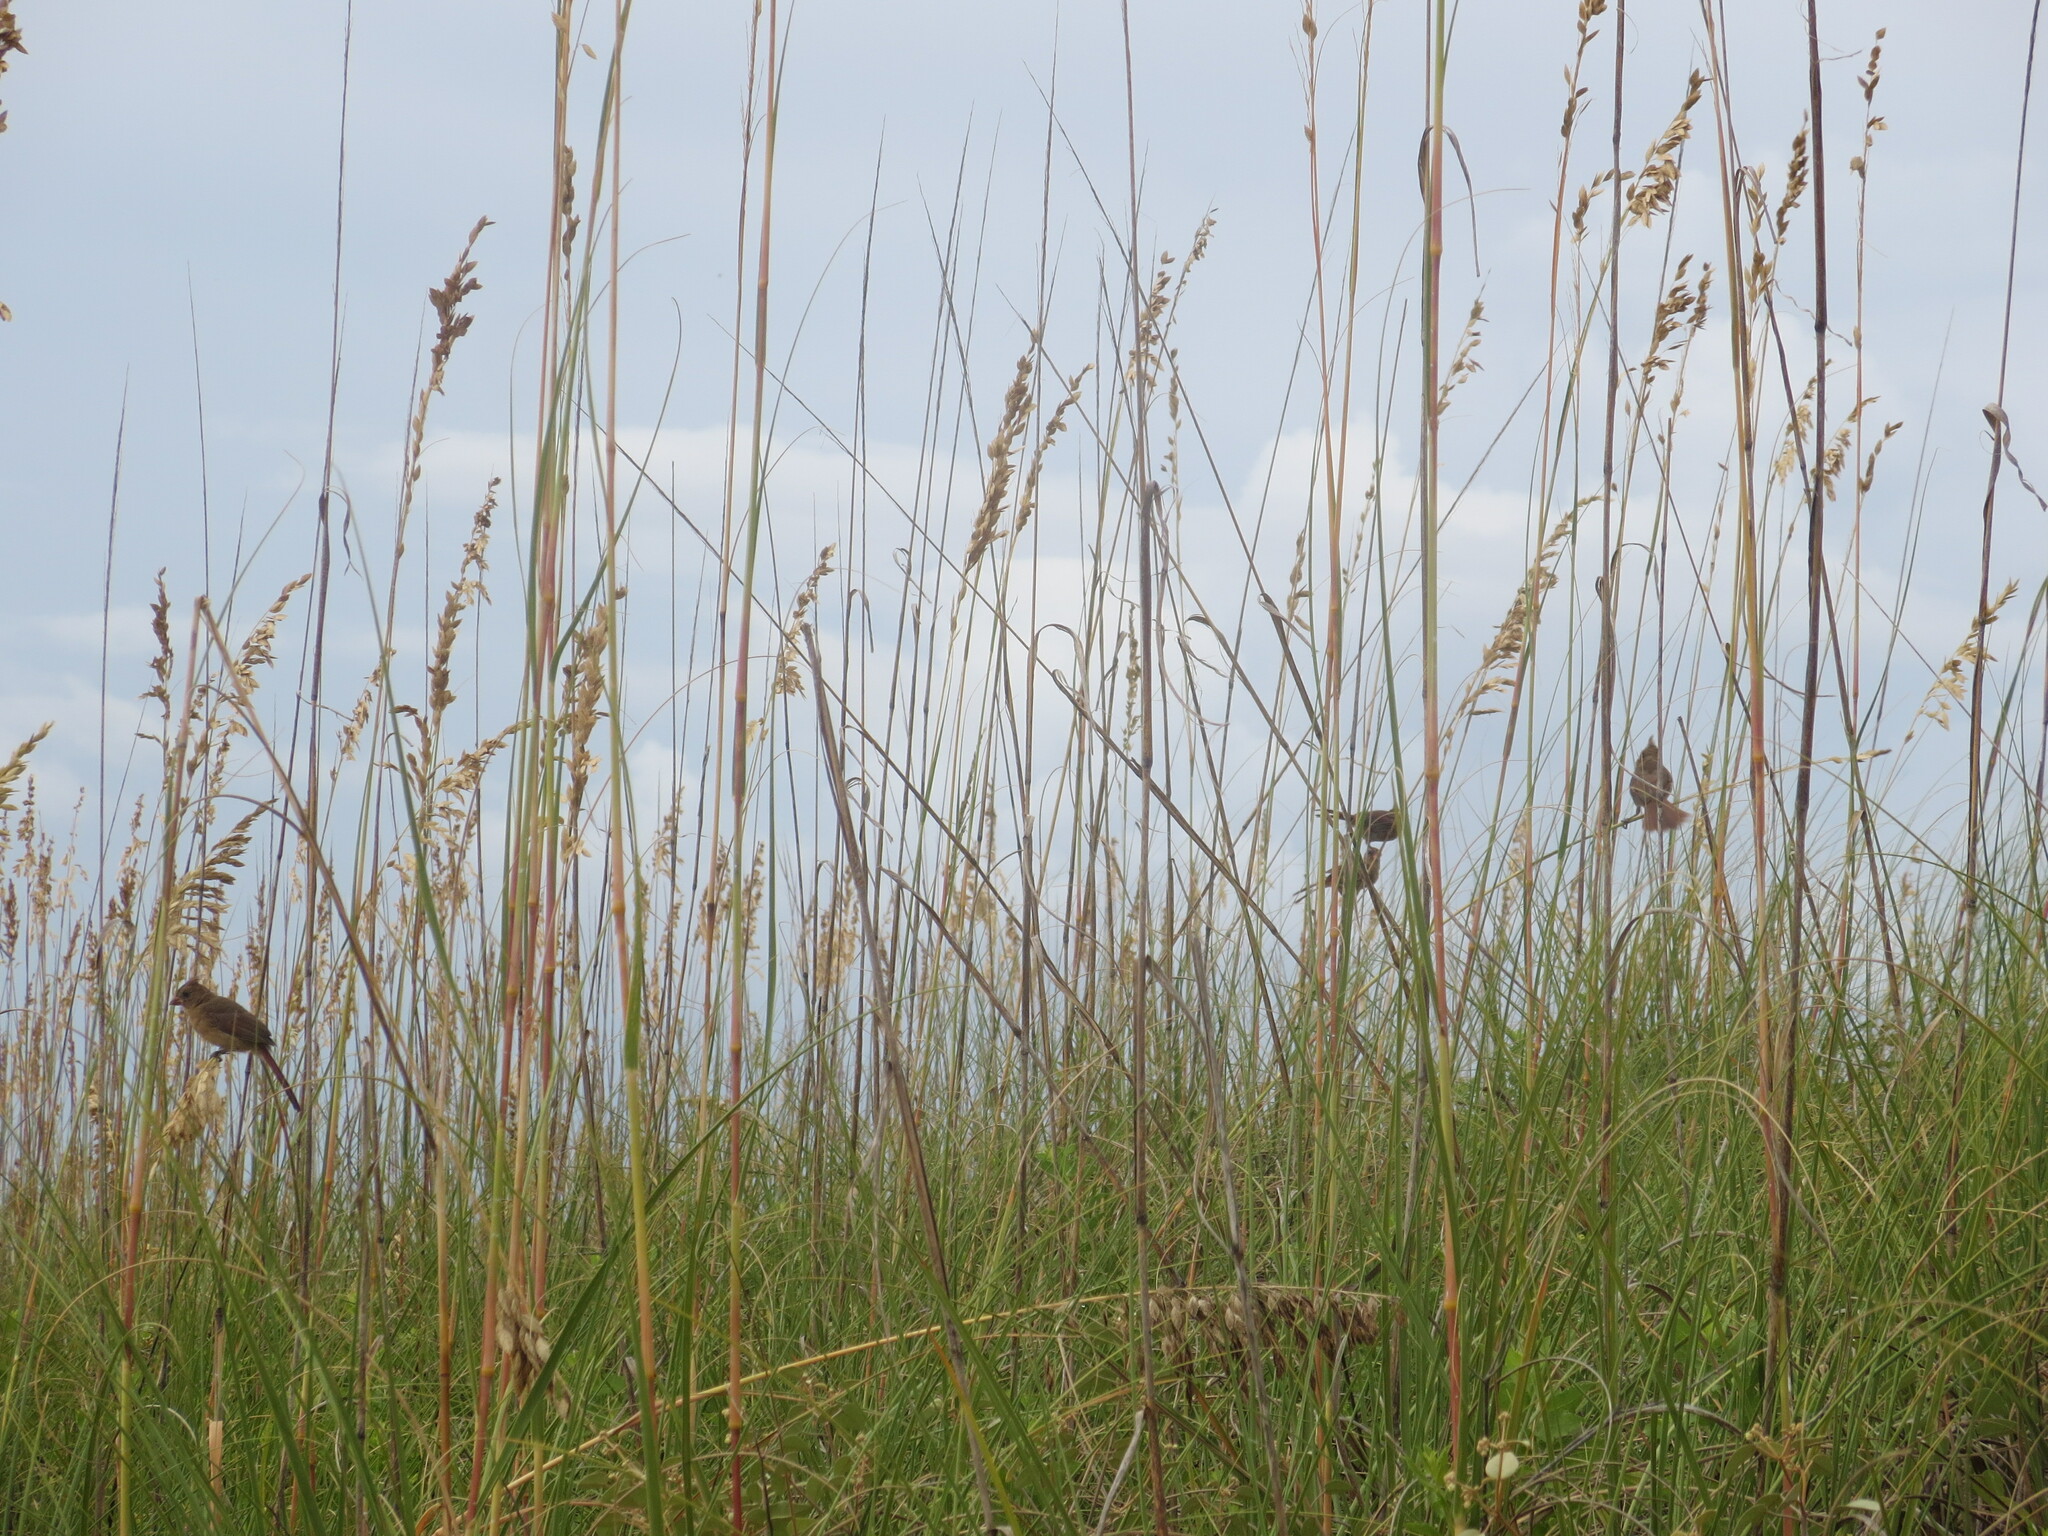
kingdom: Animalia
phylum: Chordata
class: Aves
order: Passeriformes
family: Cardinalidae
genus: Cardinalis
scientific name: Cardinalis cardinalis
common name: Northern cardinal
